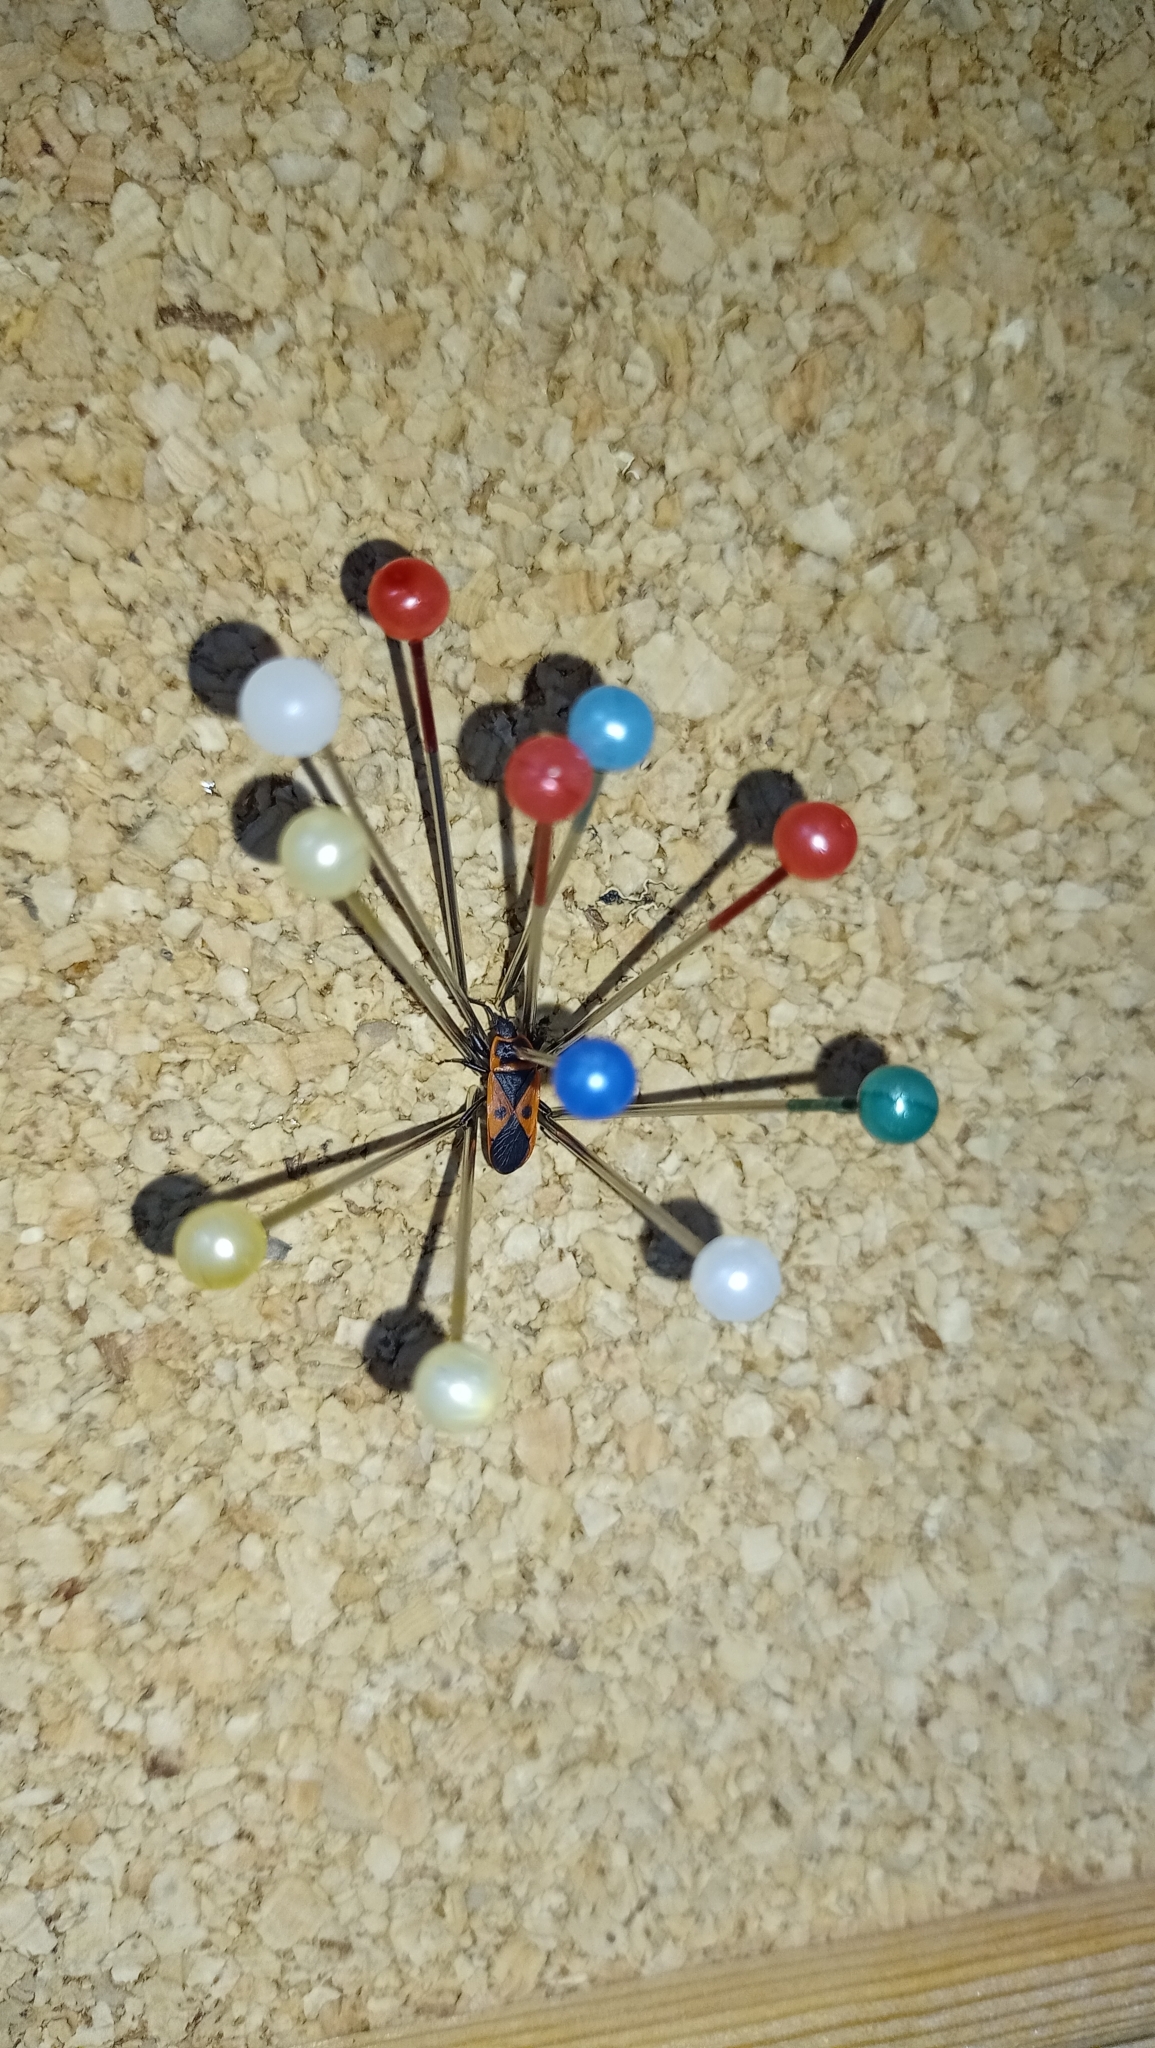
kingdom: Animalia
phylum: Arthropoda
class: Insecta
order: Hemiptera
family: Pyrrhocoridae
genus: Scantius
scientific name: Scantius aegyptius
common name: Red bug
